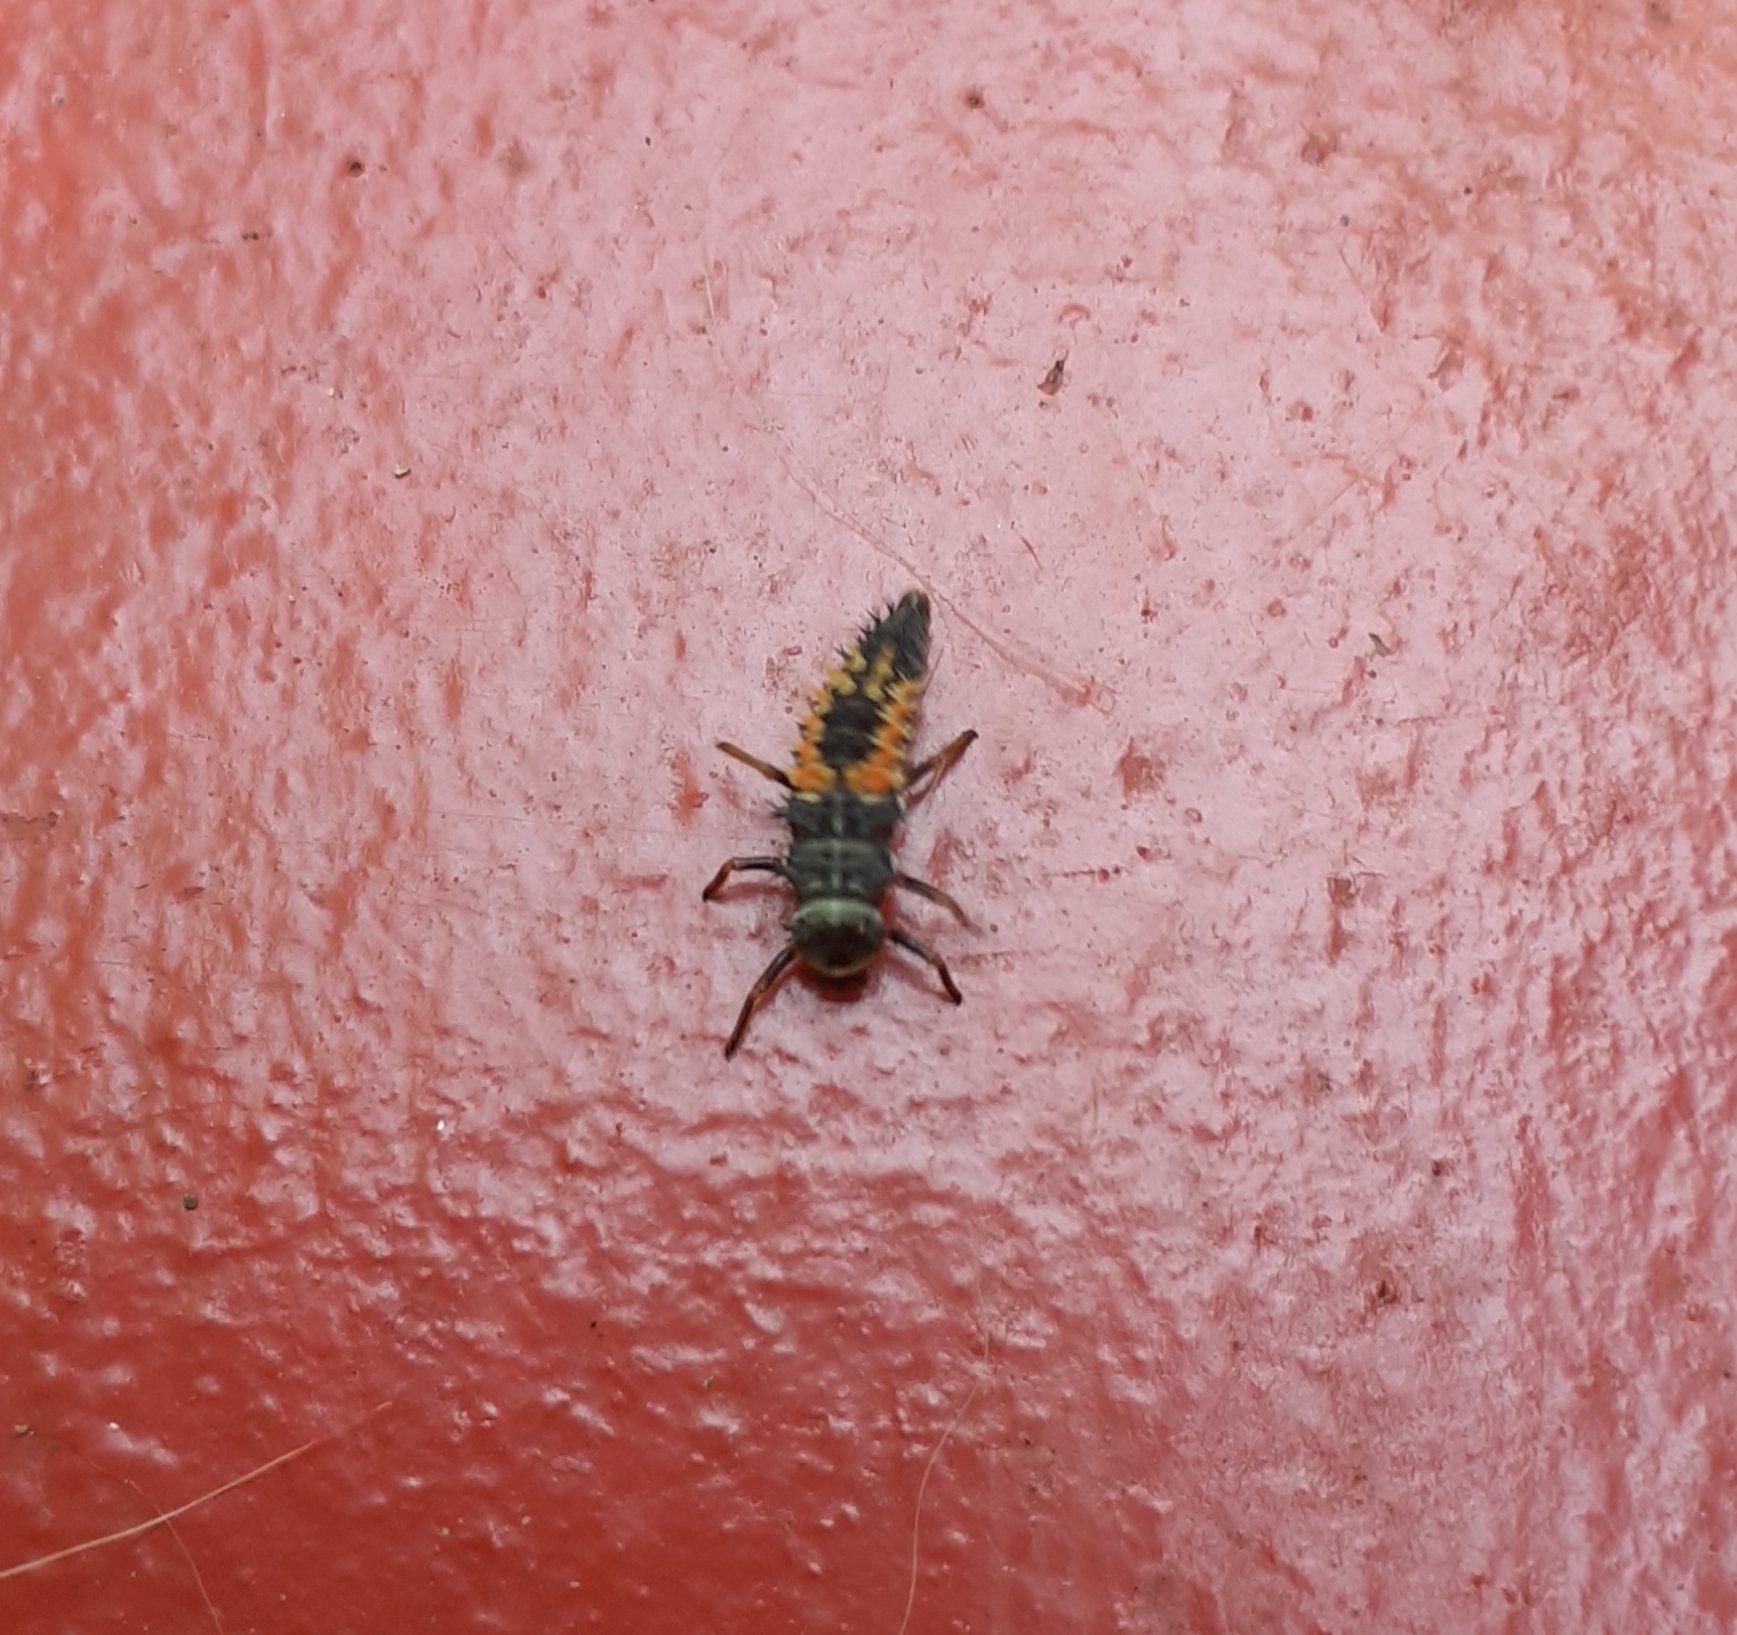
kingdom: Animalia
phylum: Arthropoda
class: Insecta
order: Coleoptera
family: Coccinellidae
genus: Harmonia
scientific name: Harmonia axyridis
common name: Harlequin ladybird
